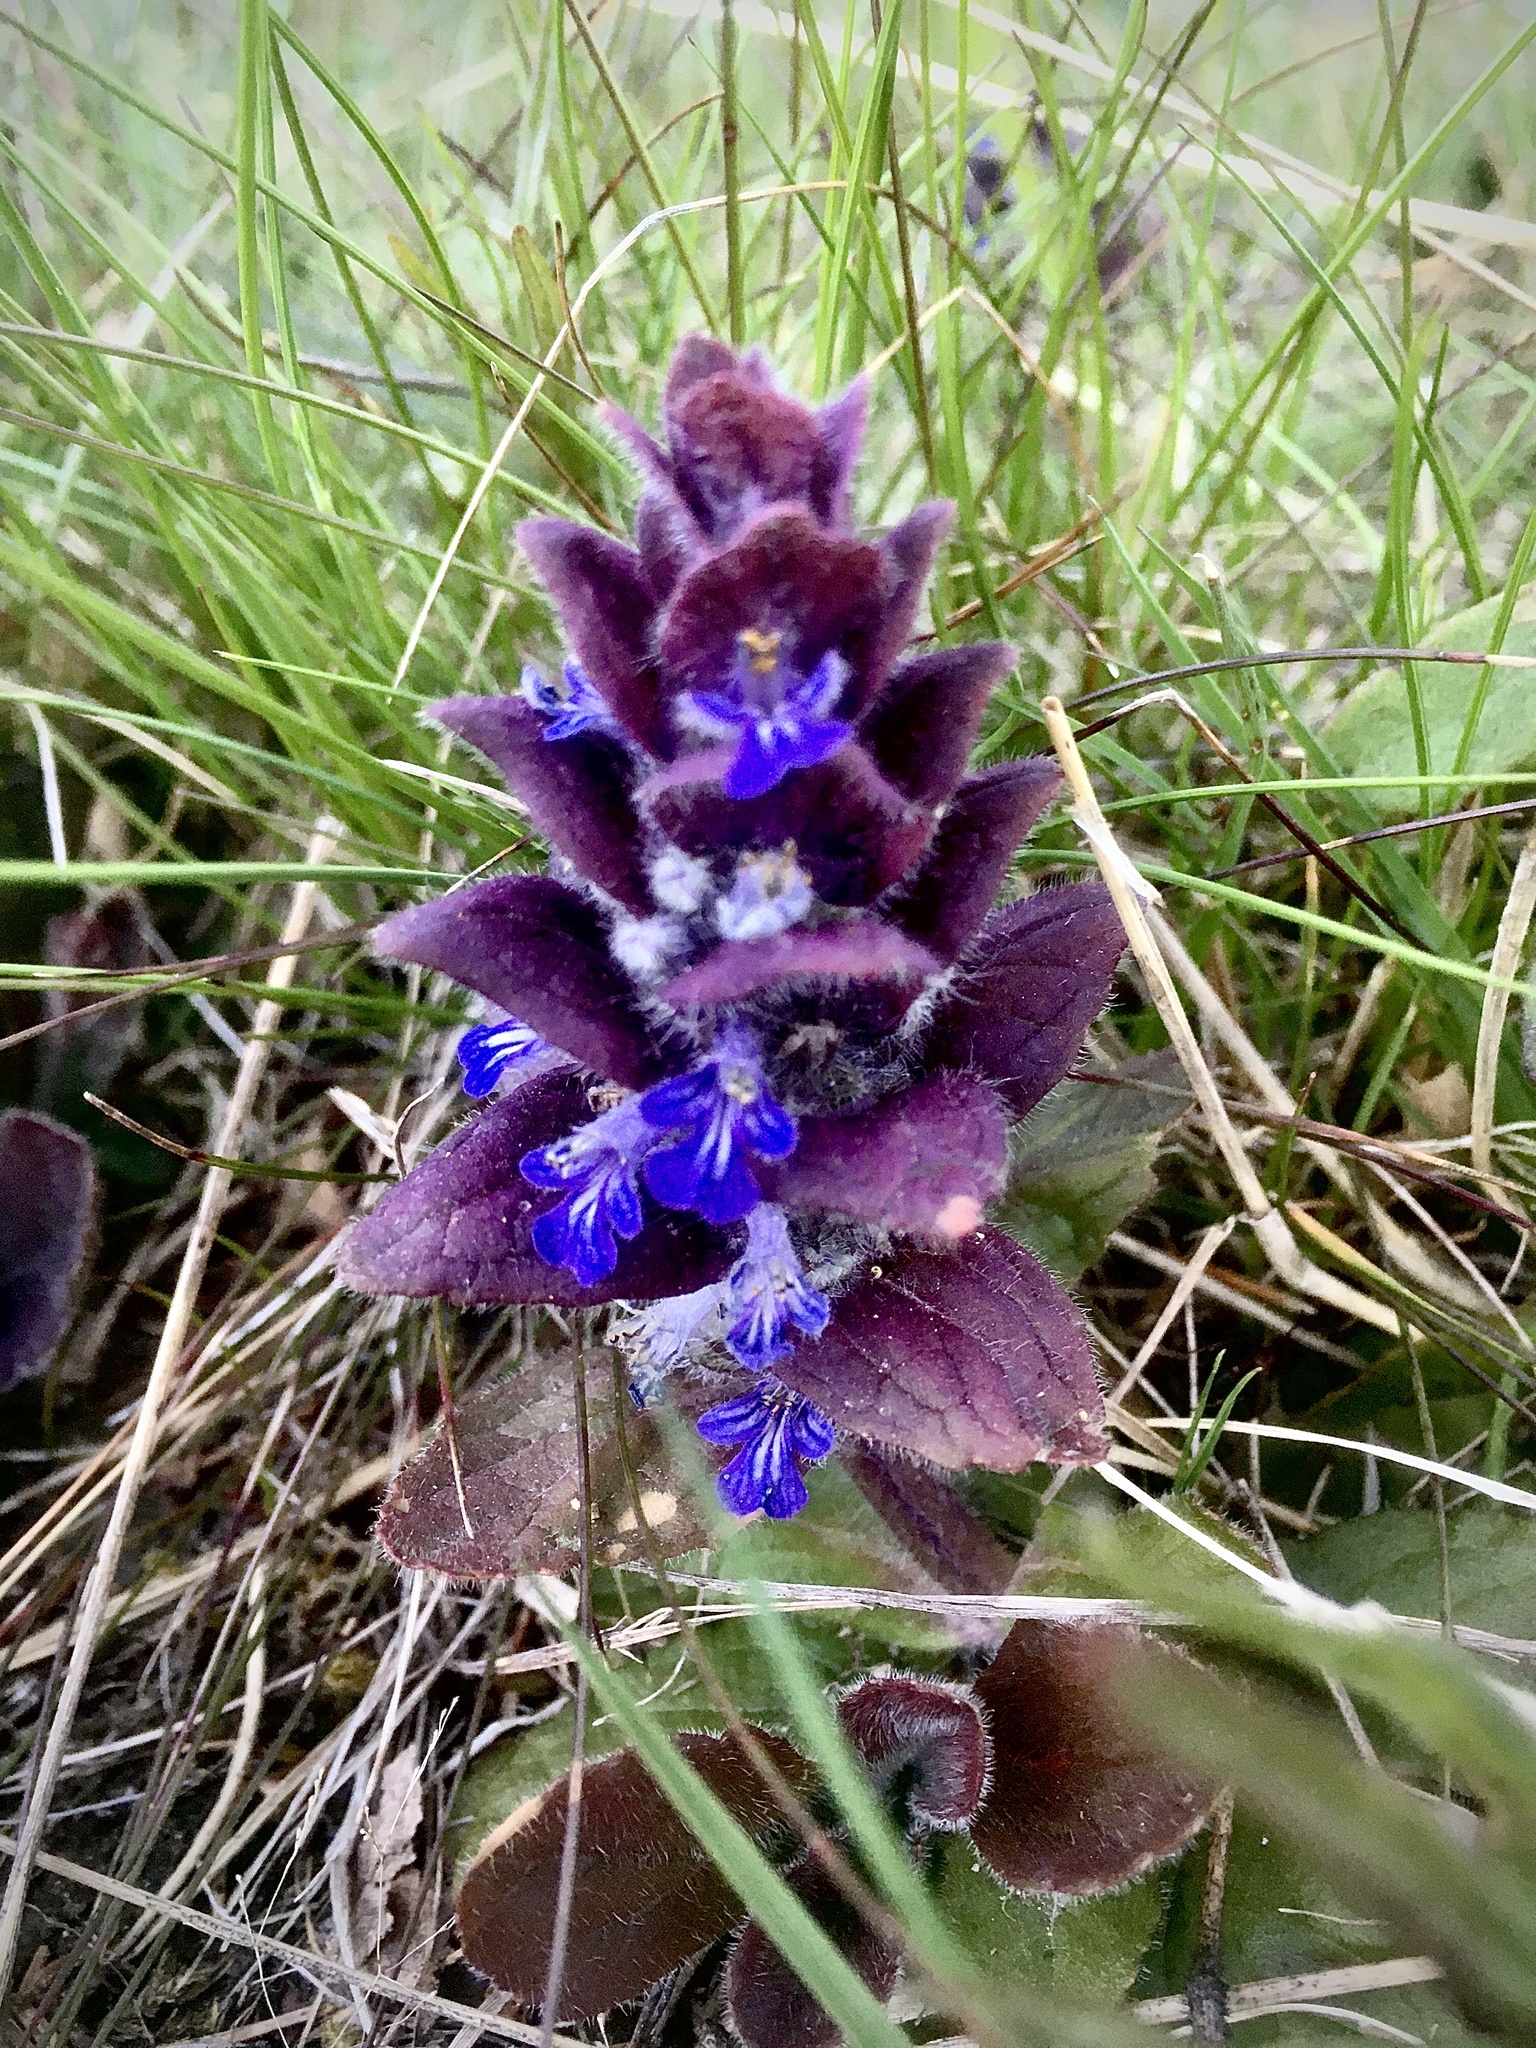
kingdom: Plantae
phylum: Tracheophyta
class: Magnoliopsida
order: Lamiales
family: Lamiaceae
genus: Ajuga
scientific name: Ajuga pyramidalis
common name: Pyramid bugle
